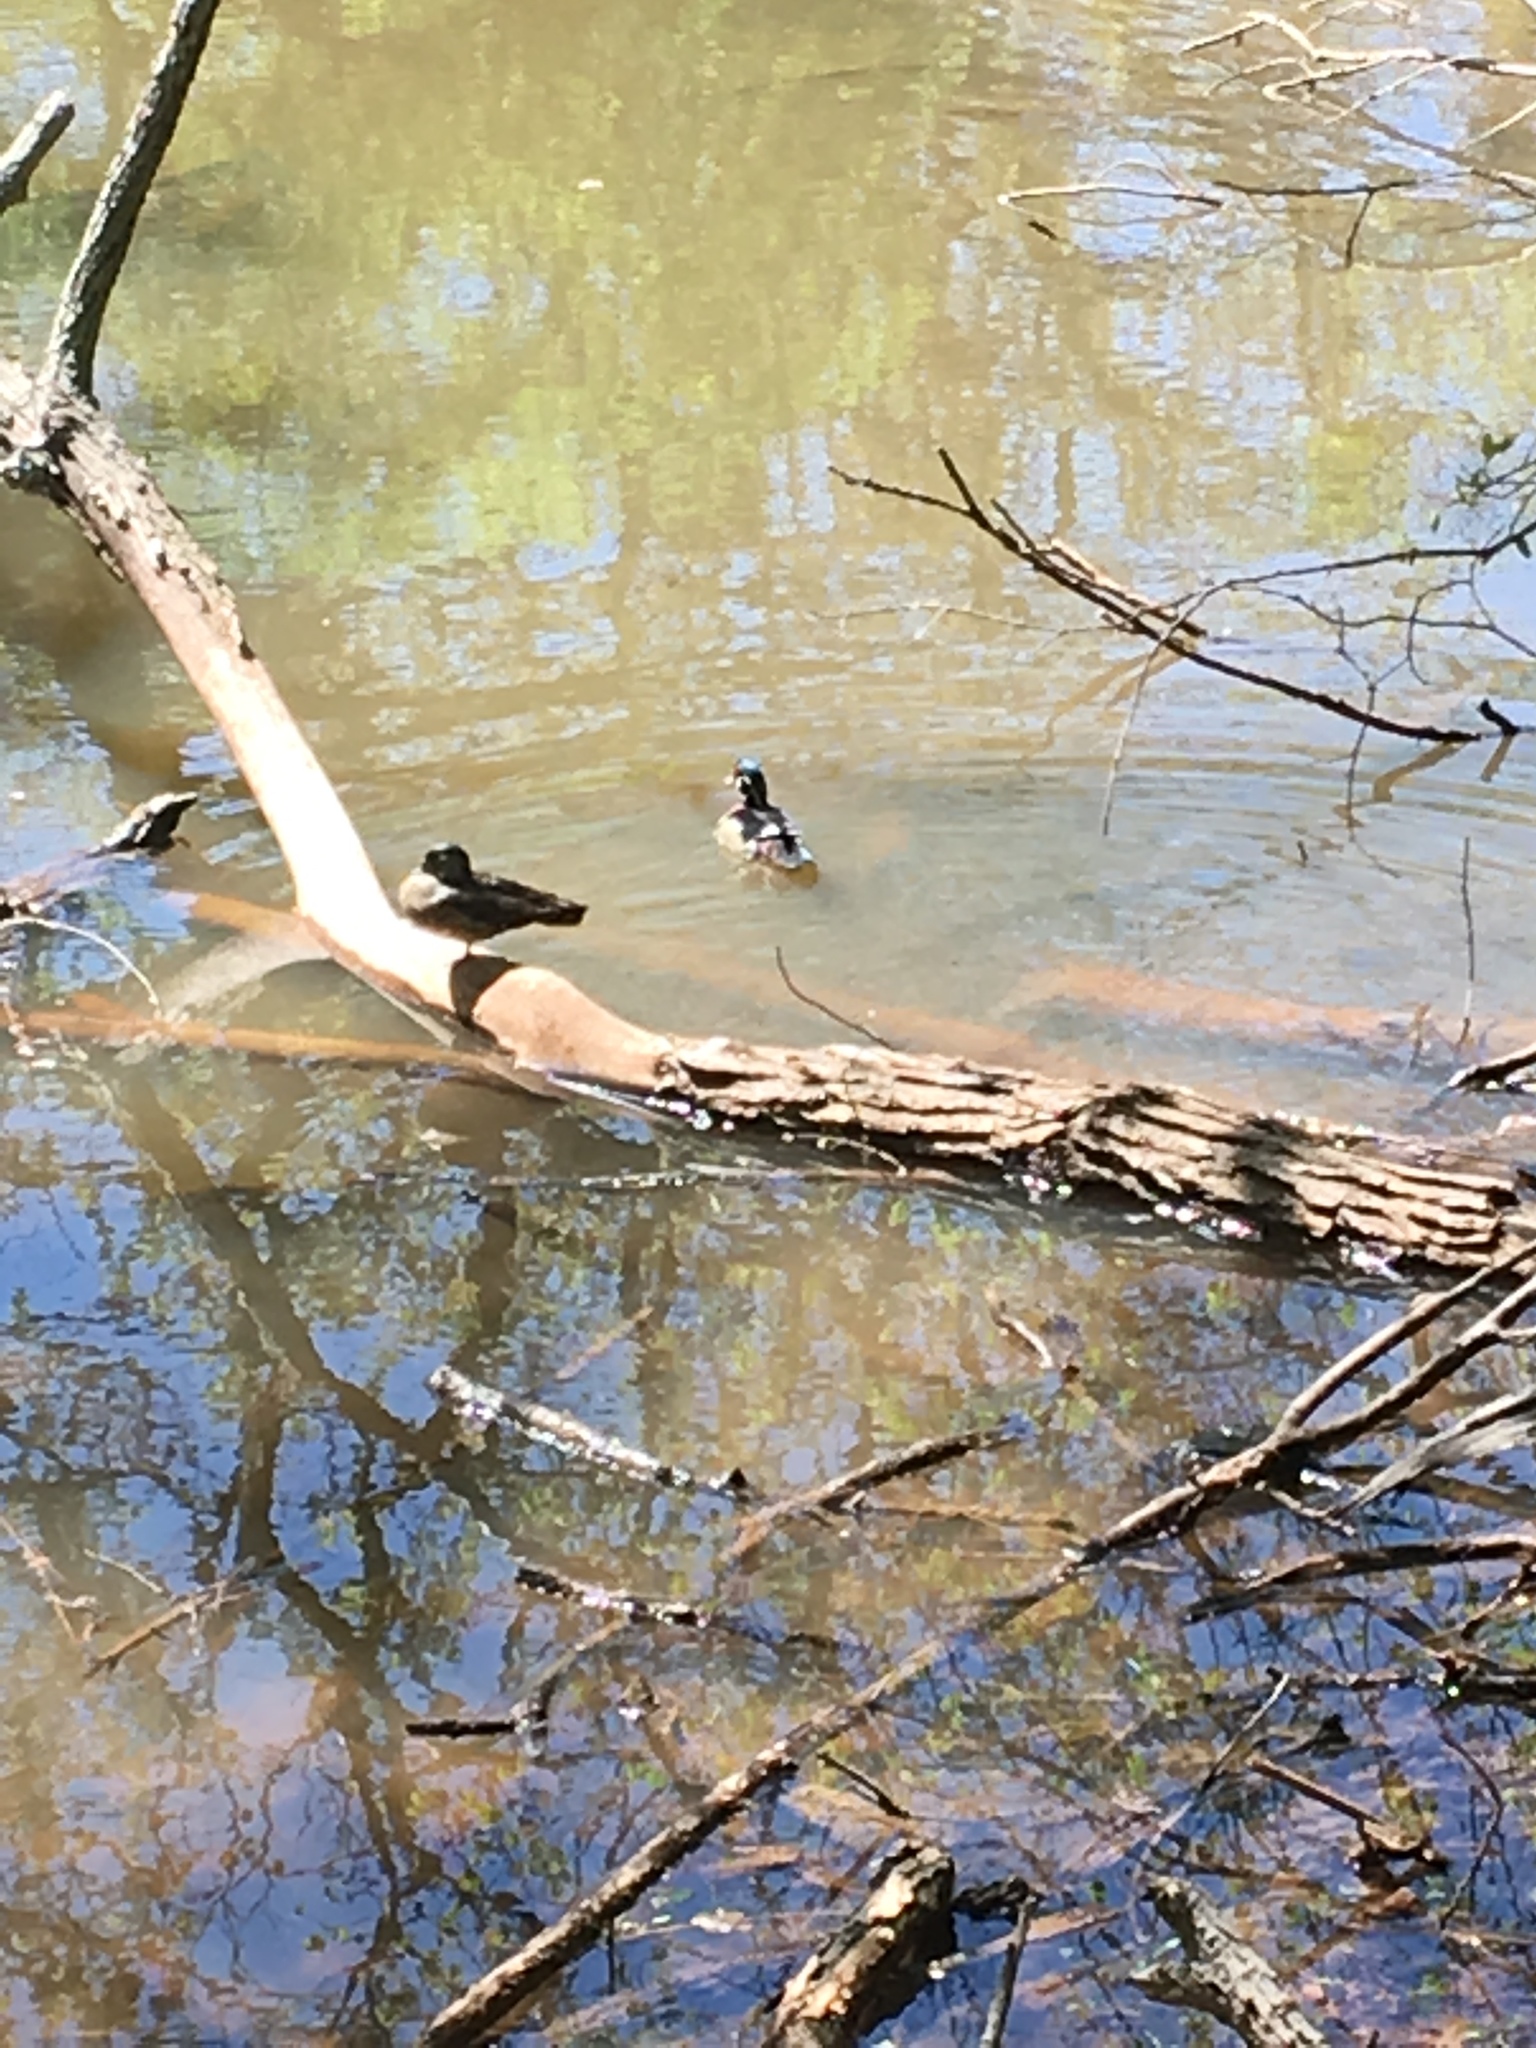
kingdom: Animalia
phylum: Chordata
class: Aves
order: Anseriformes
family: Anatidae
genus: Aix
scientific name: Aix sponsa
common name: Wood duck
